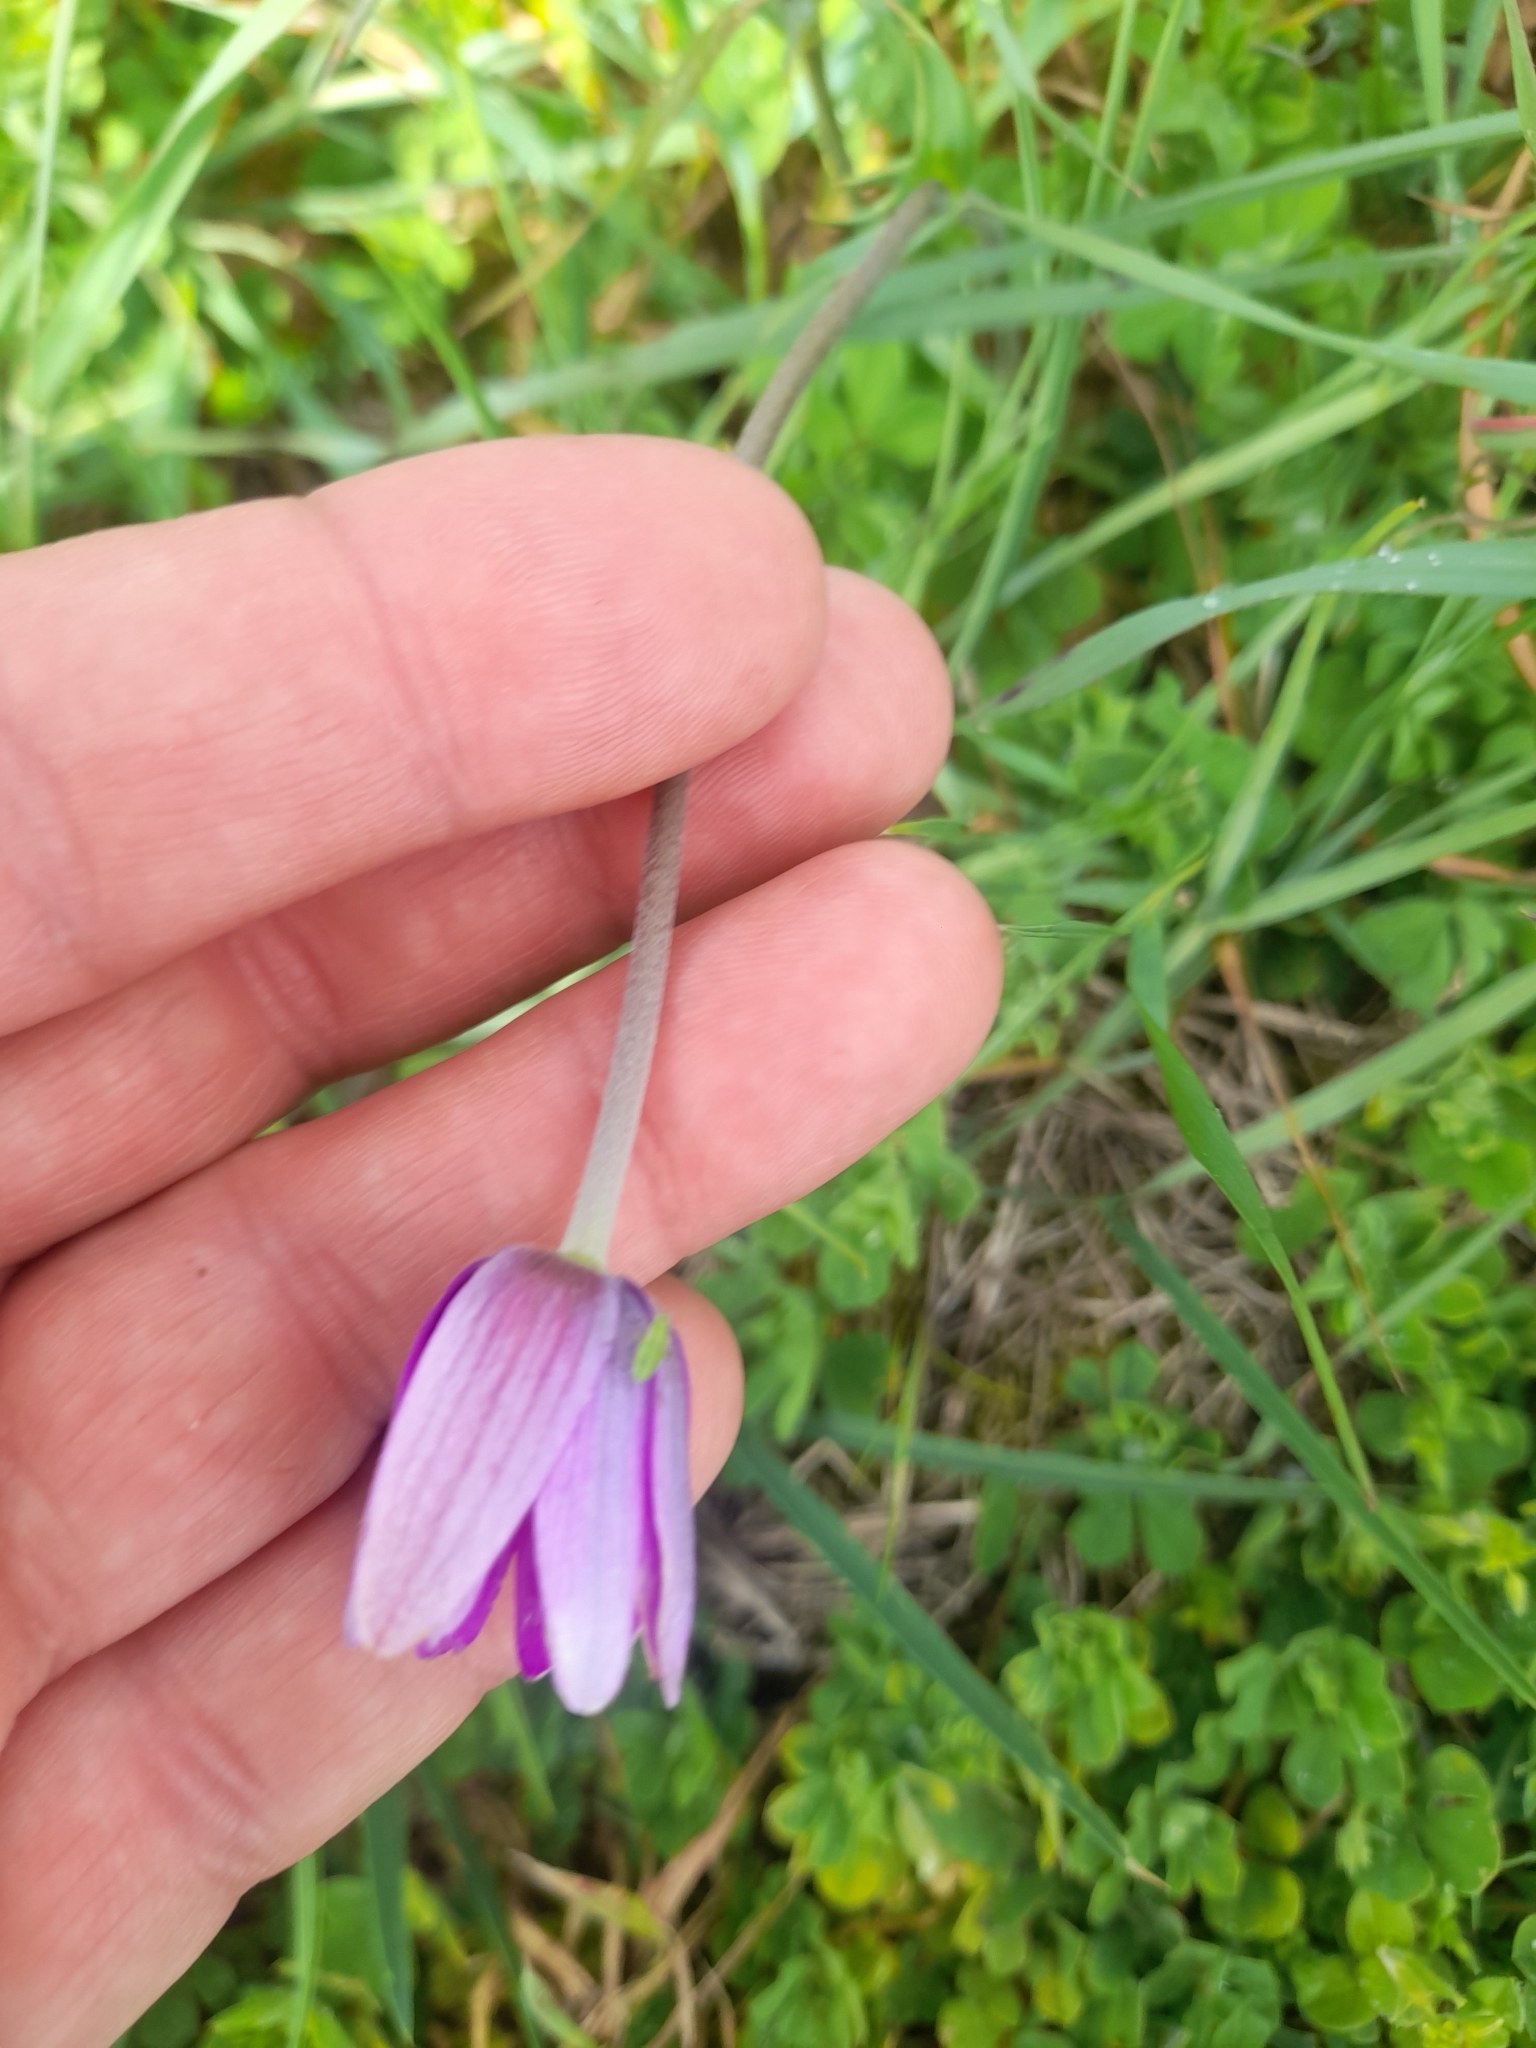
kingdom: Plantae
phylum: Tracheophyta
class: Magnoliopsida
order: Ranunculales
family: Ranunculaceae
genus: Anemone
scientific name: Anemone hortensis
